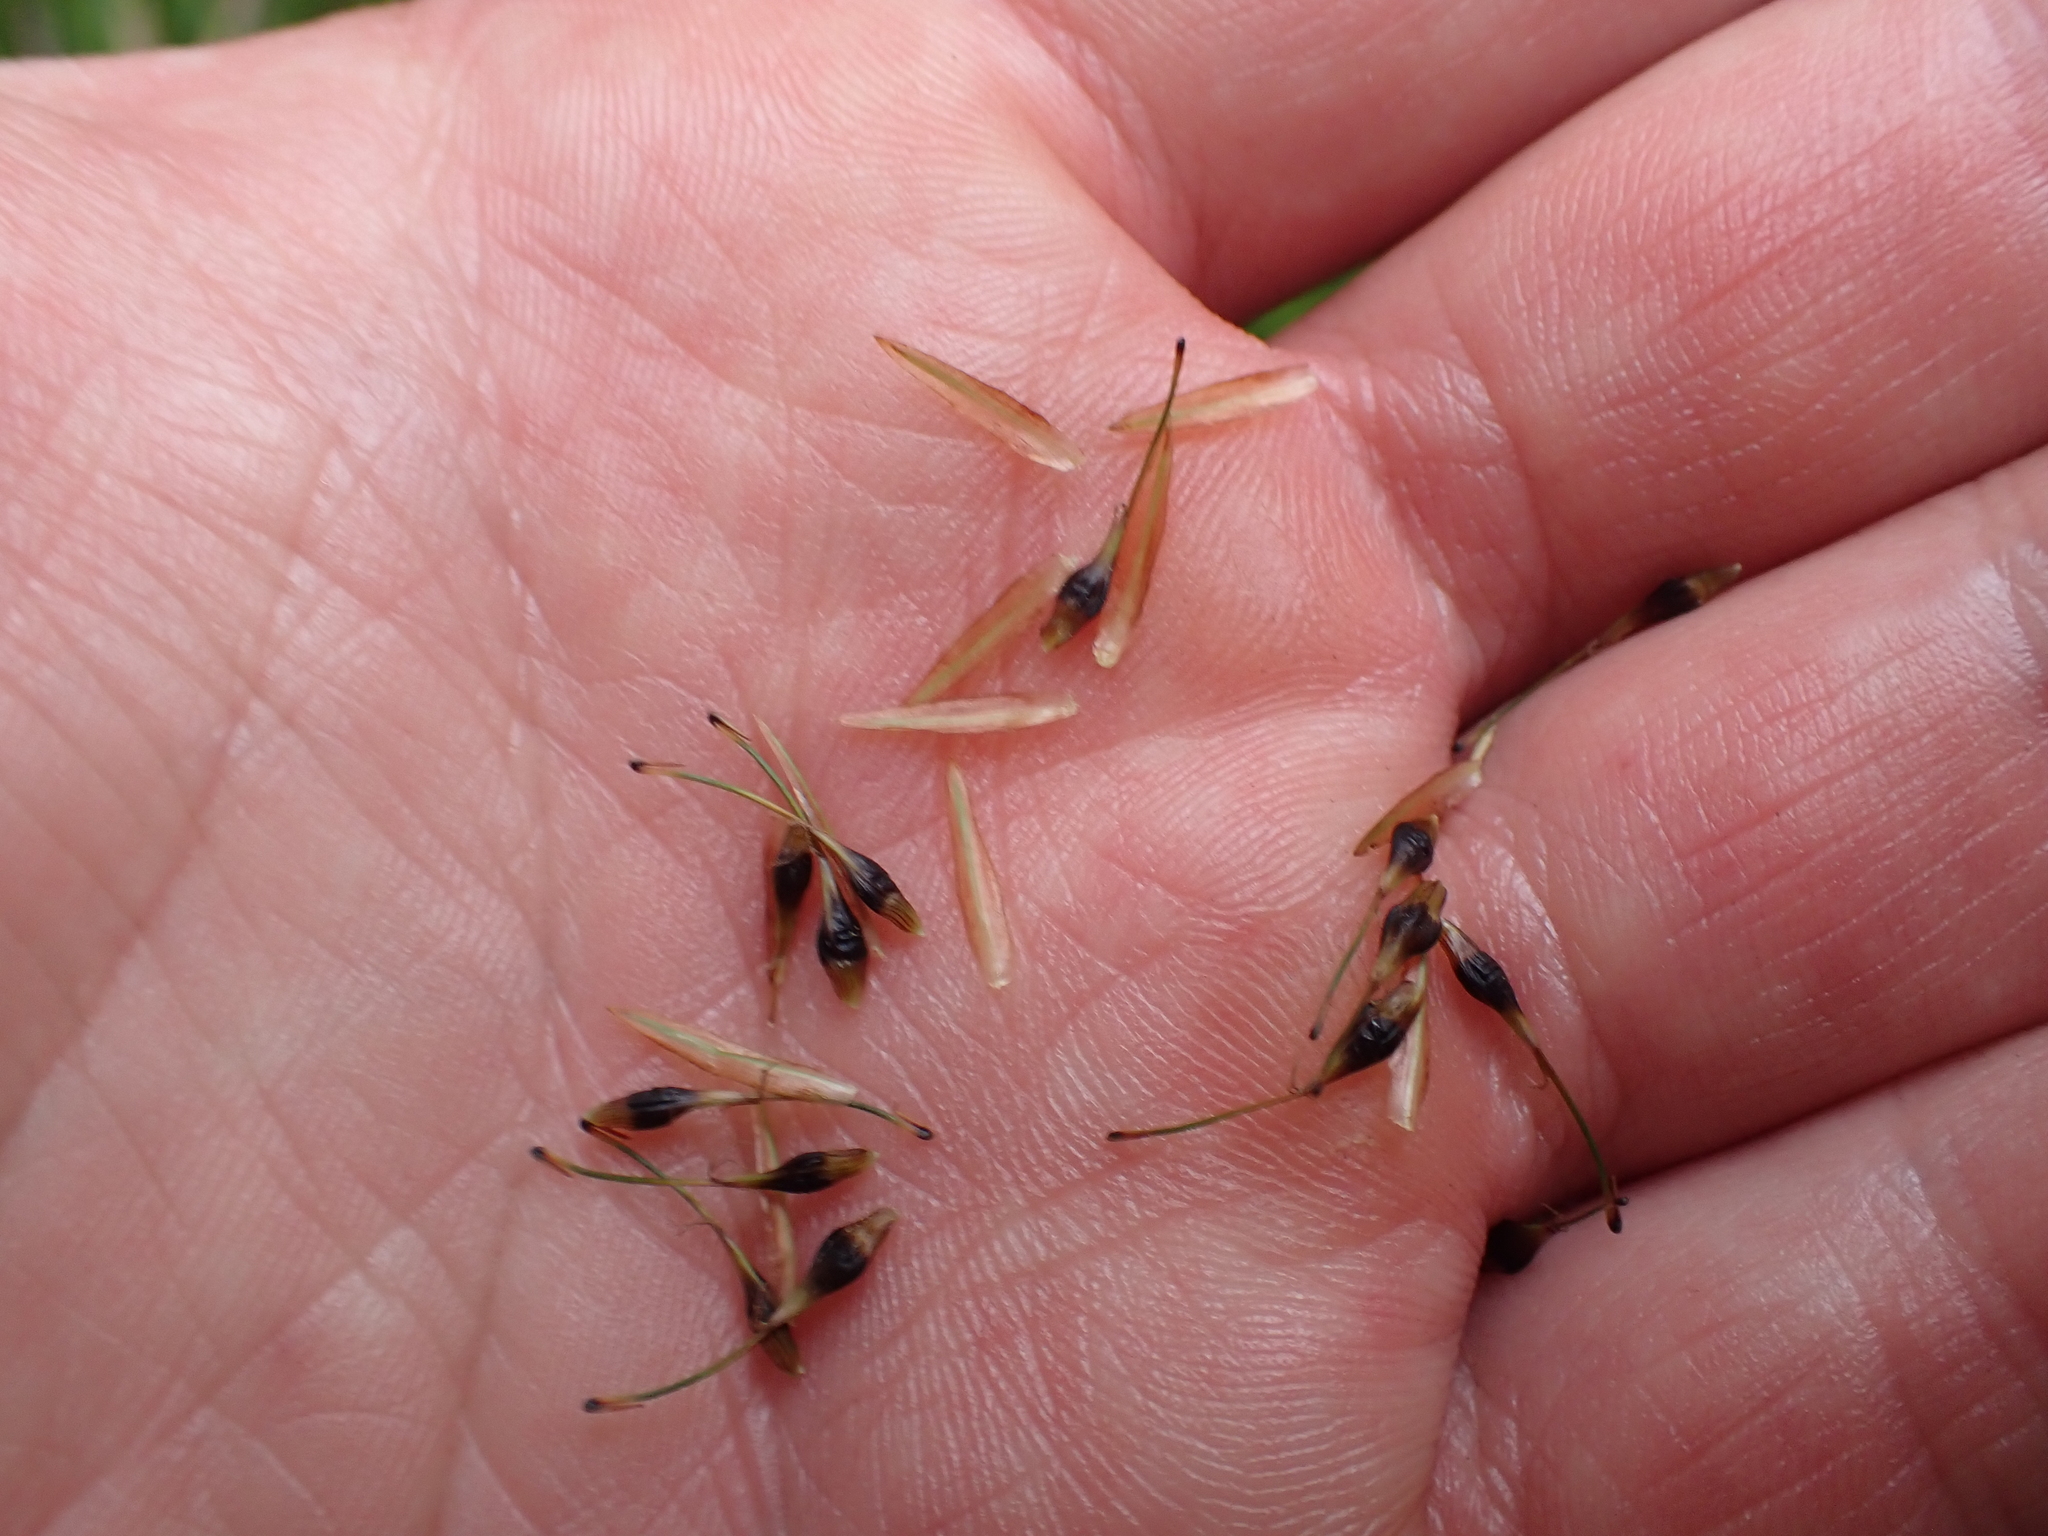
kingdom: Plantae
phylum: Tracheophyta
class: Liliopsida
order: Poales
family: Cyperaceae
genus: Carex
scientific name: Carex megalepis
